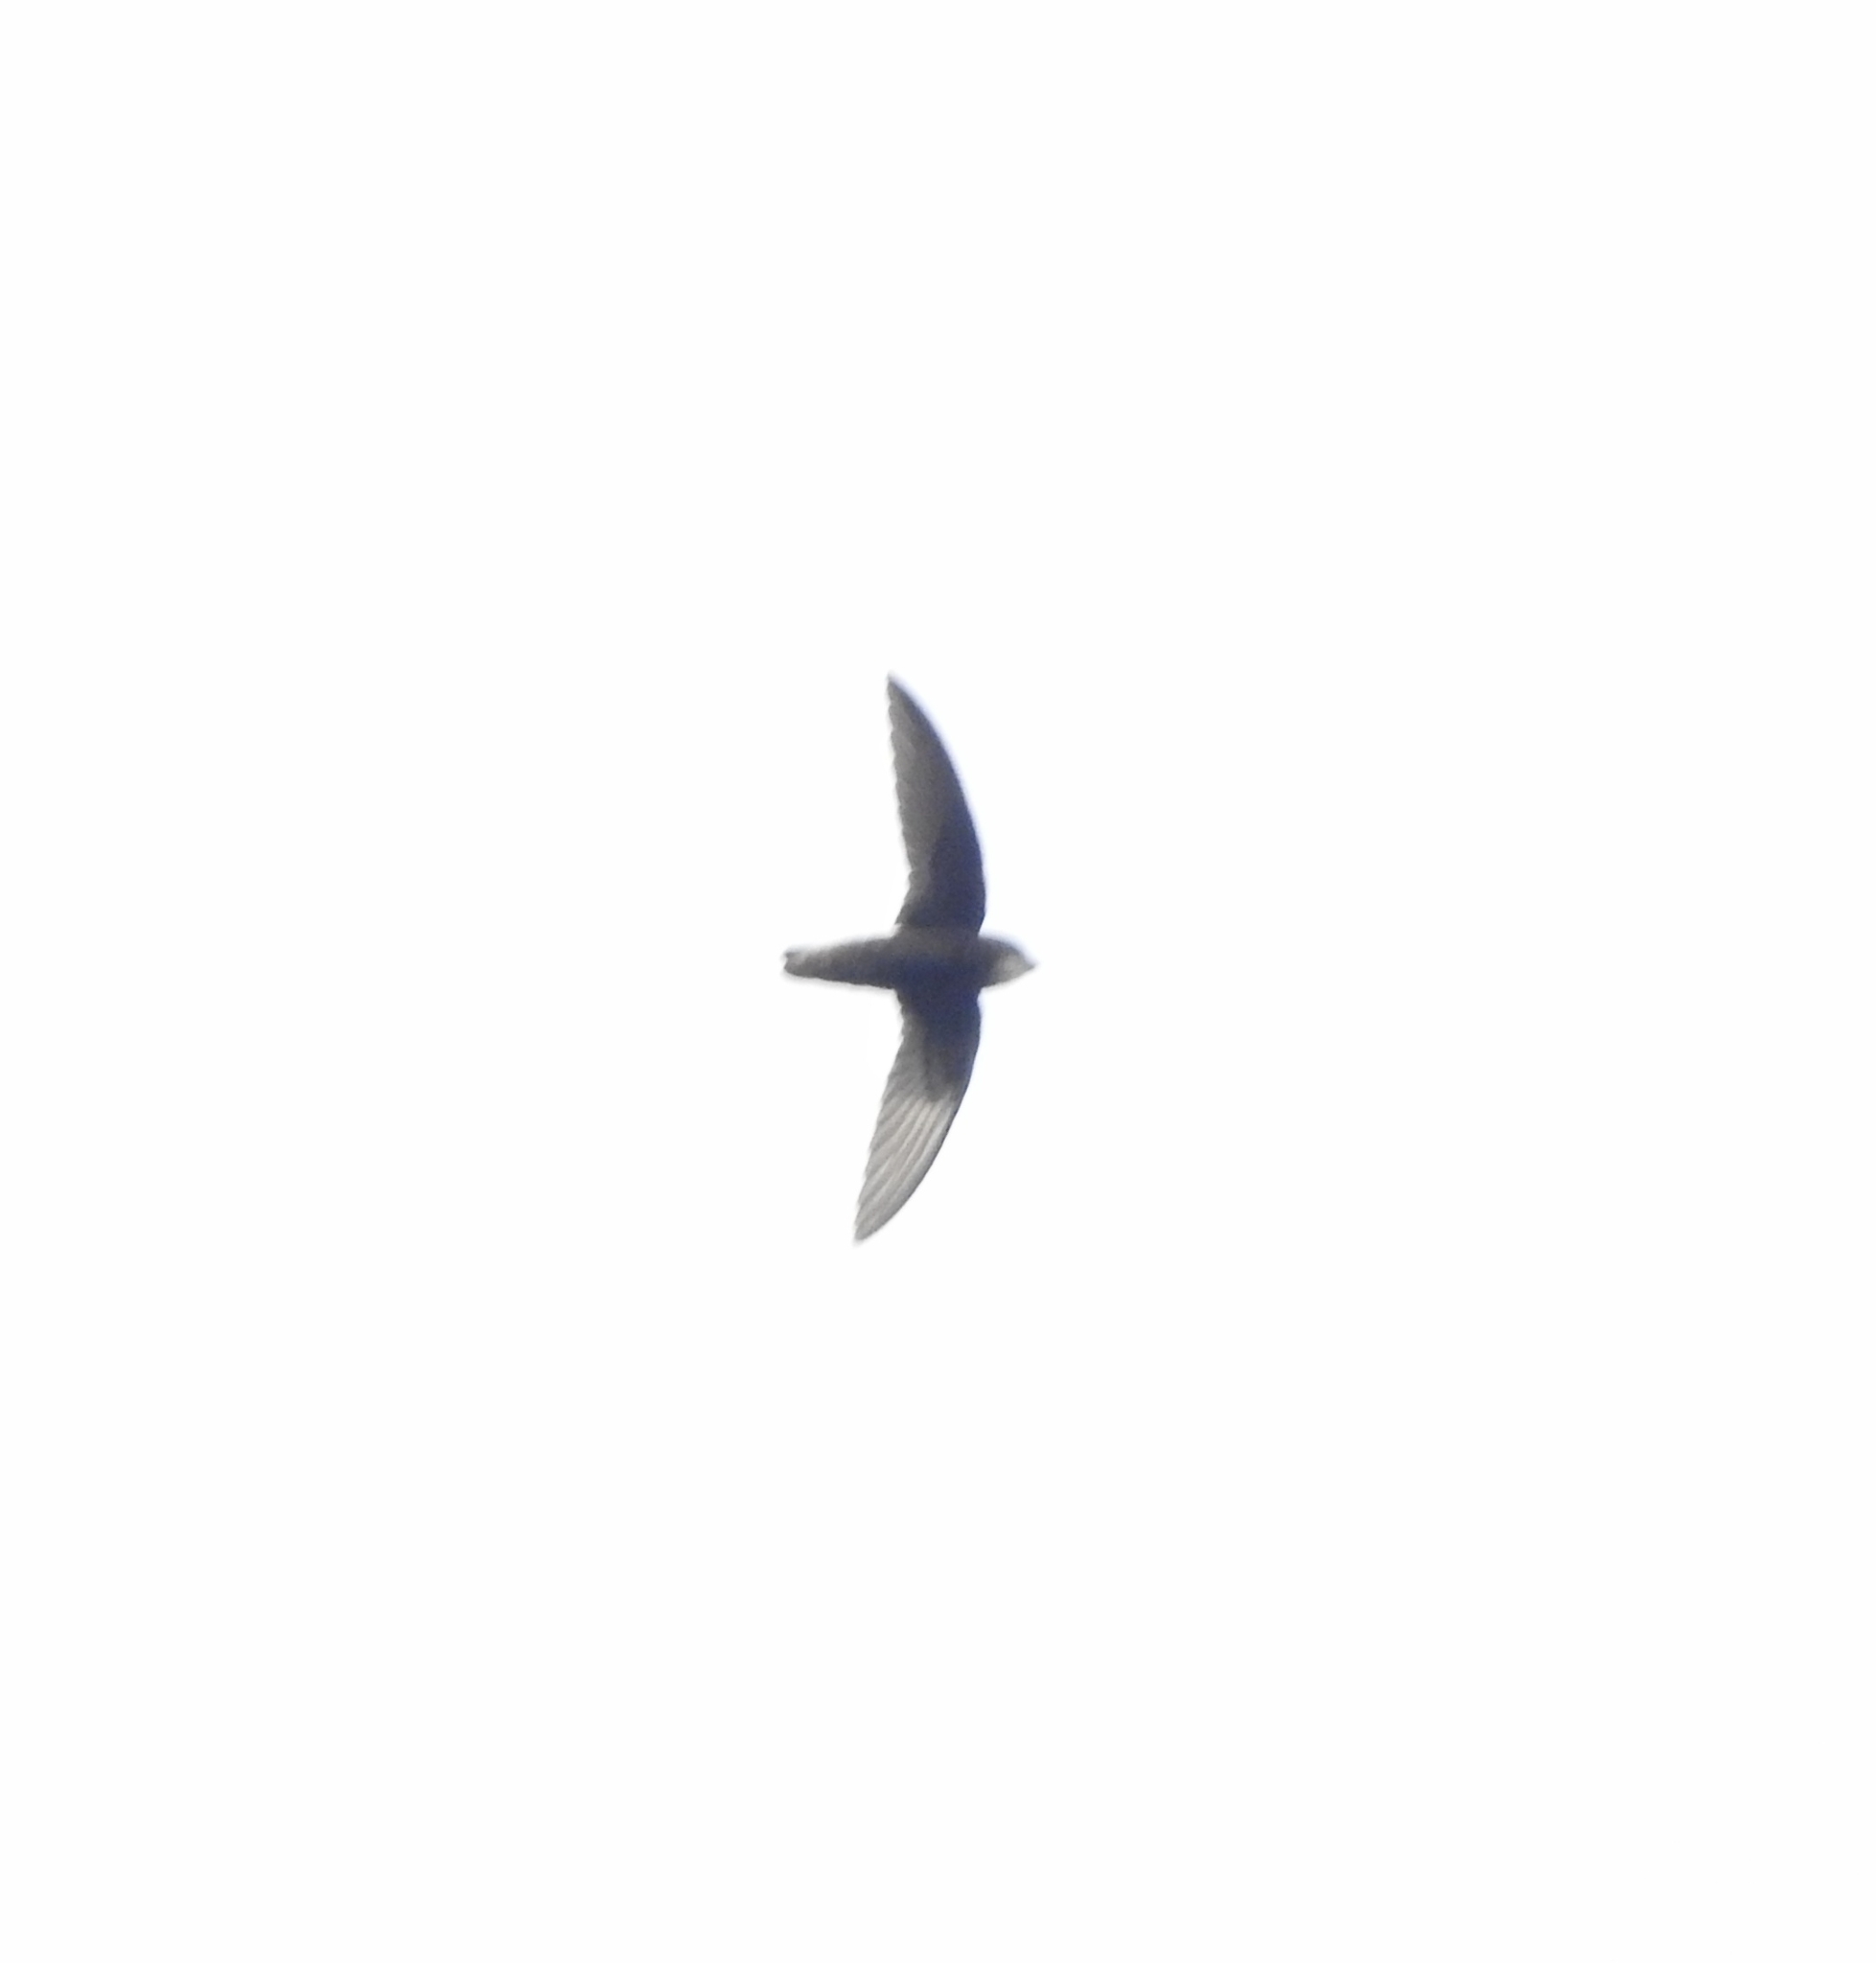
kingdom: Animalia
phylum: Chordata
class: Aves
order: Apodiformes
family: Apodidae
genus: Apus
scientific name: Apus affinis
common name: Little swift
